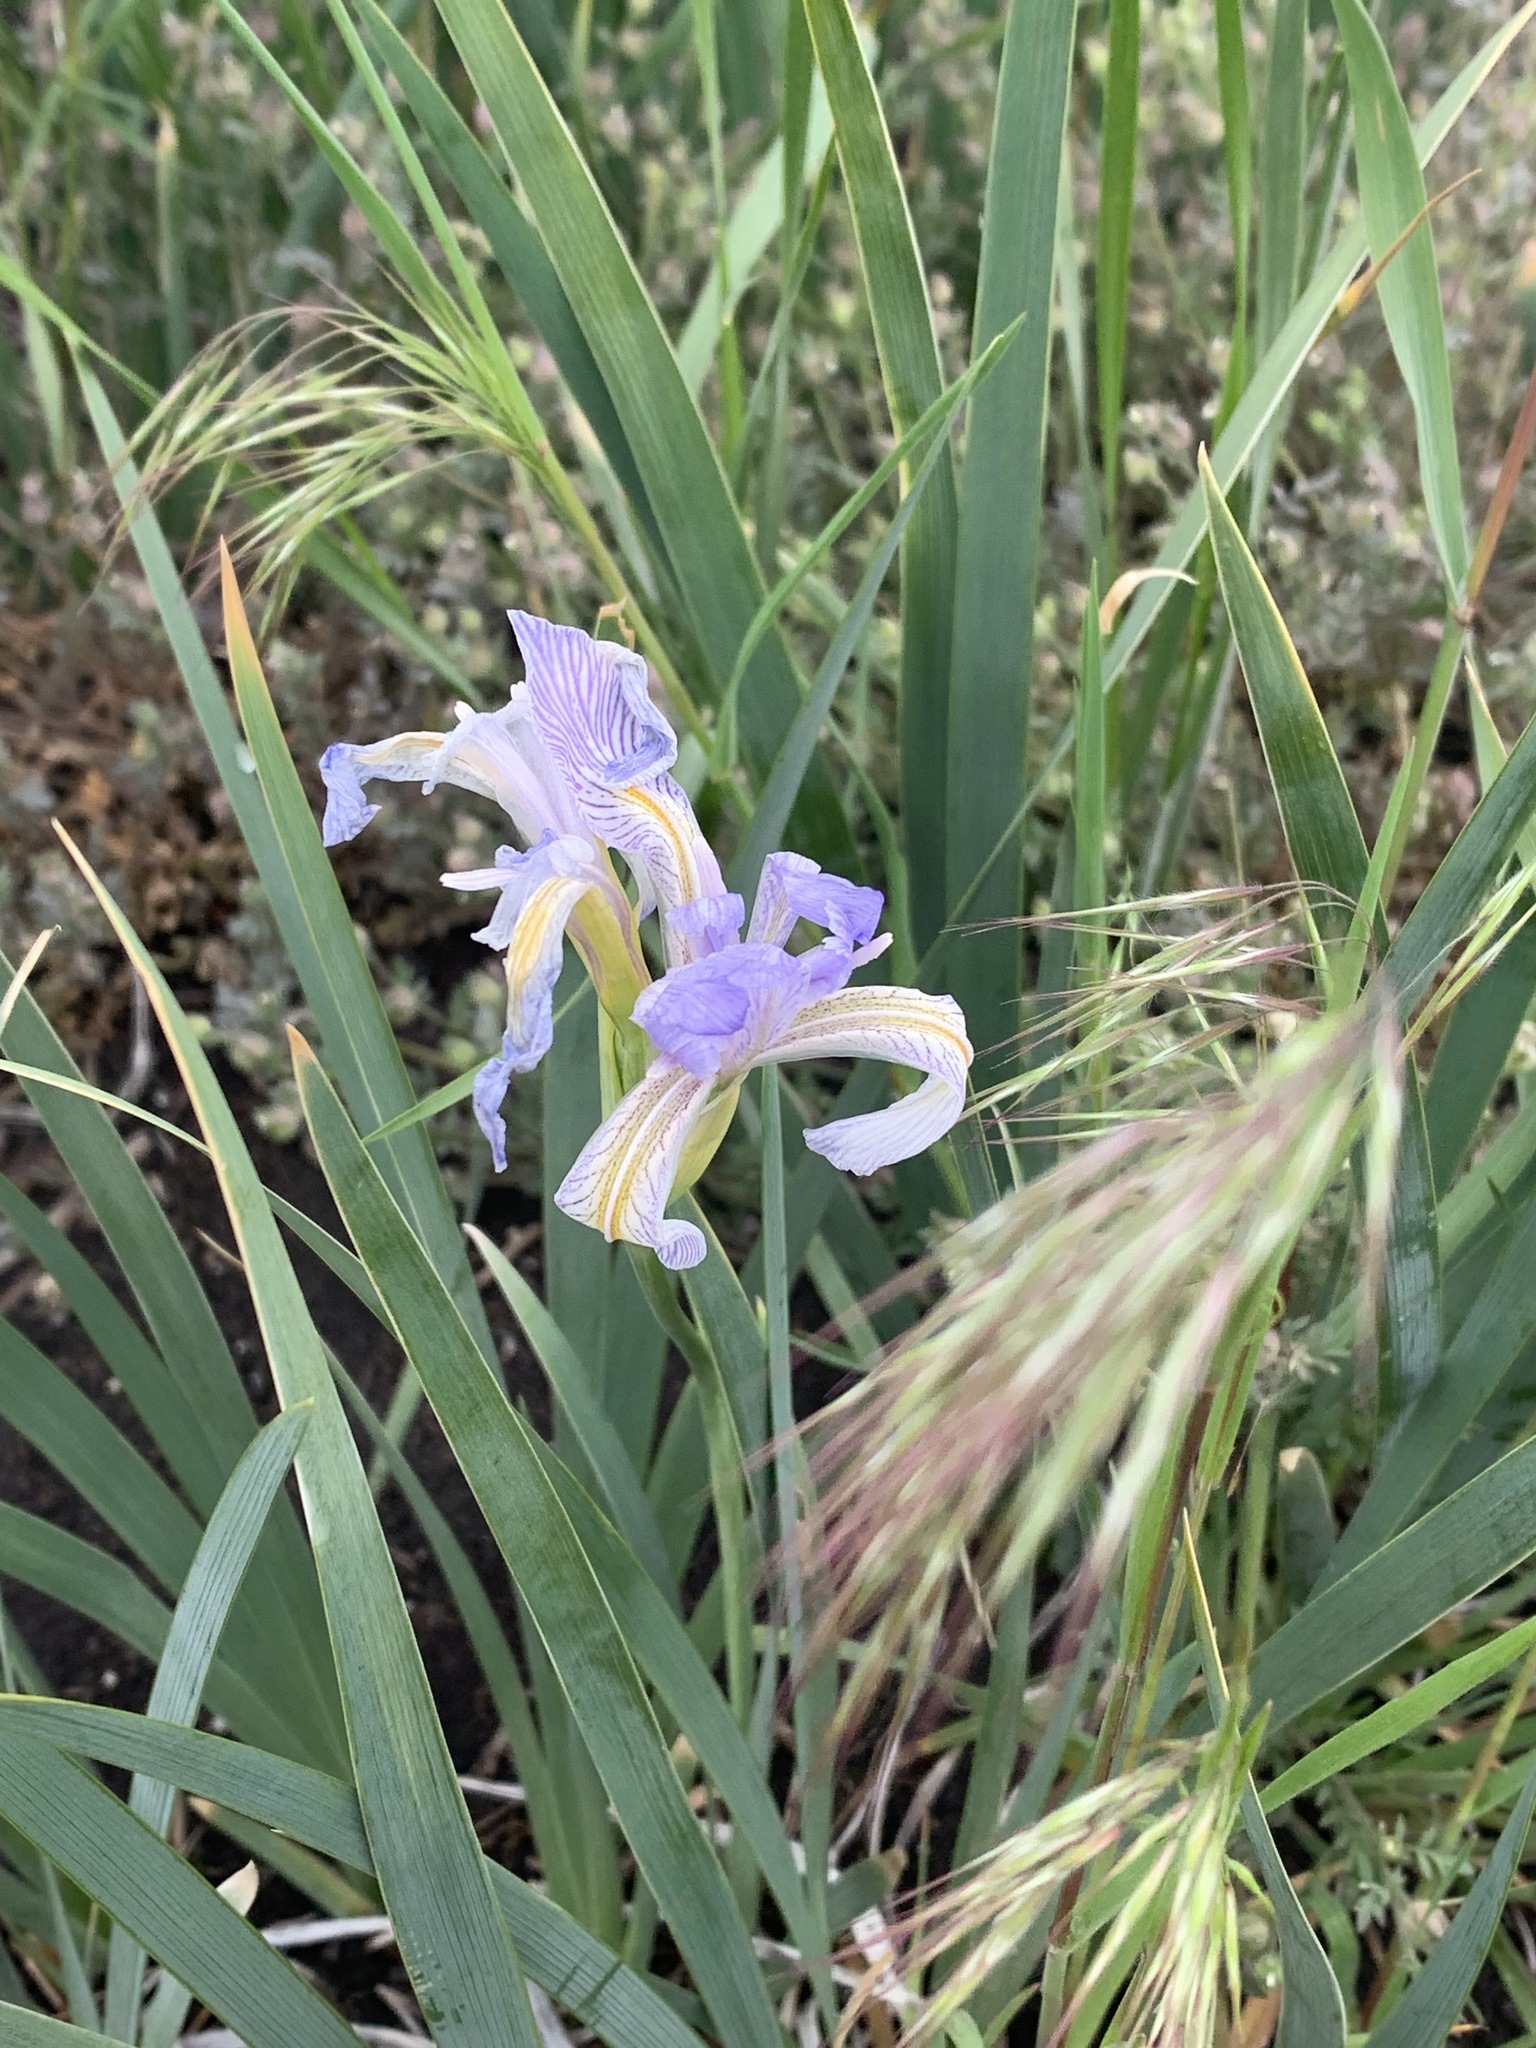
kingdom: Plantae
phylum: Tracheophyta
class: Liliopsida
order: Asparagales
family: Iridaceae
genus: Iris
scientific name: Iris missouriensis
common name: Rocky mountain iris
